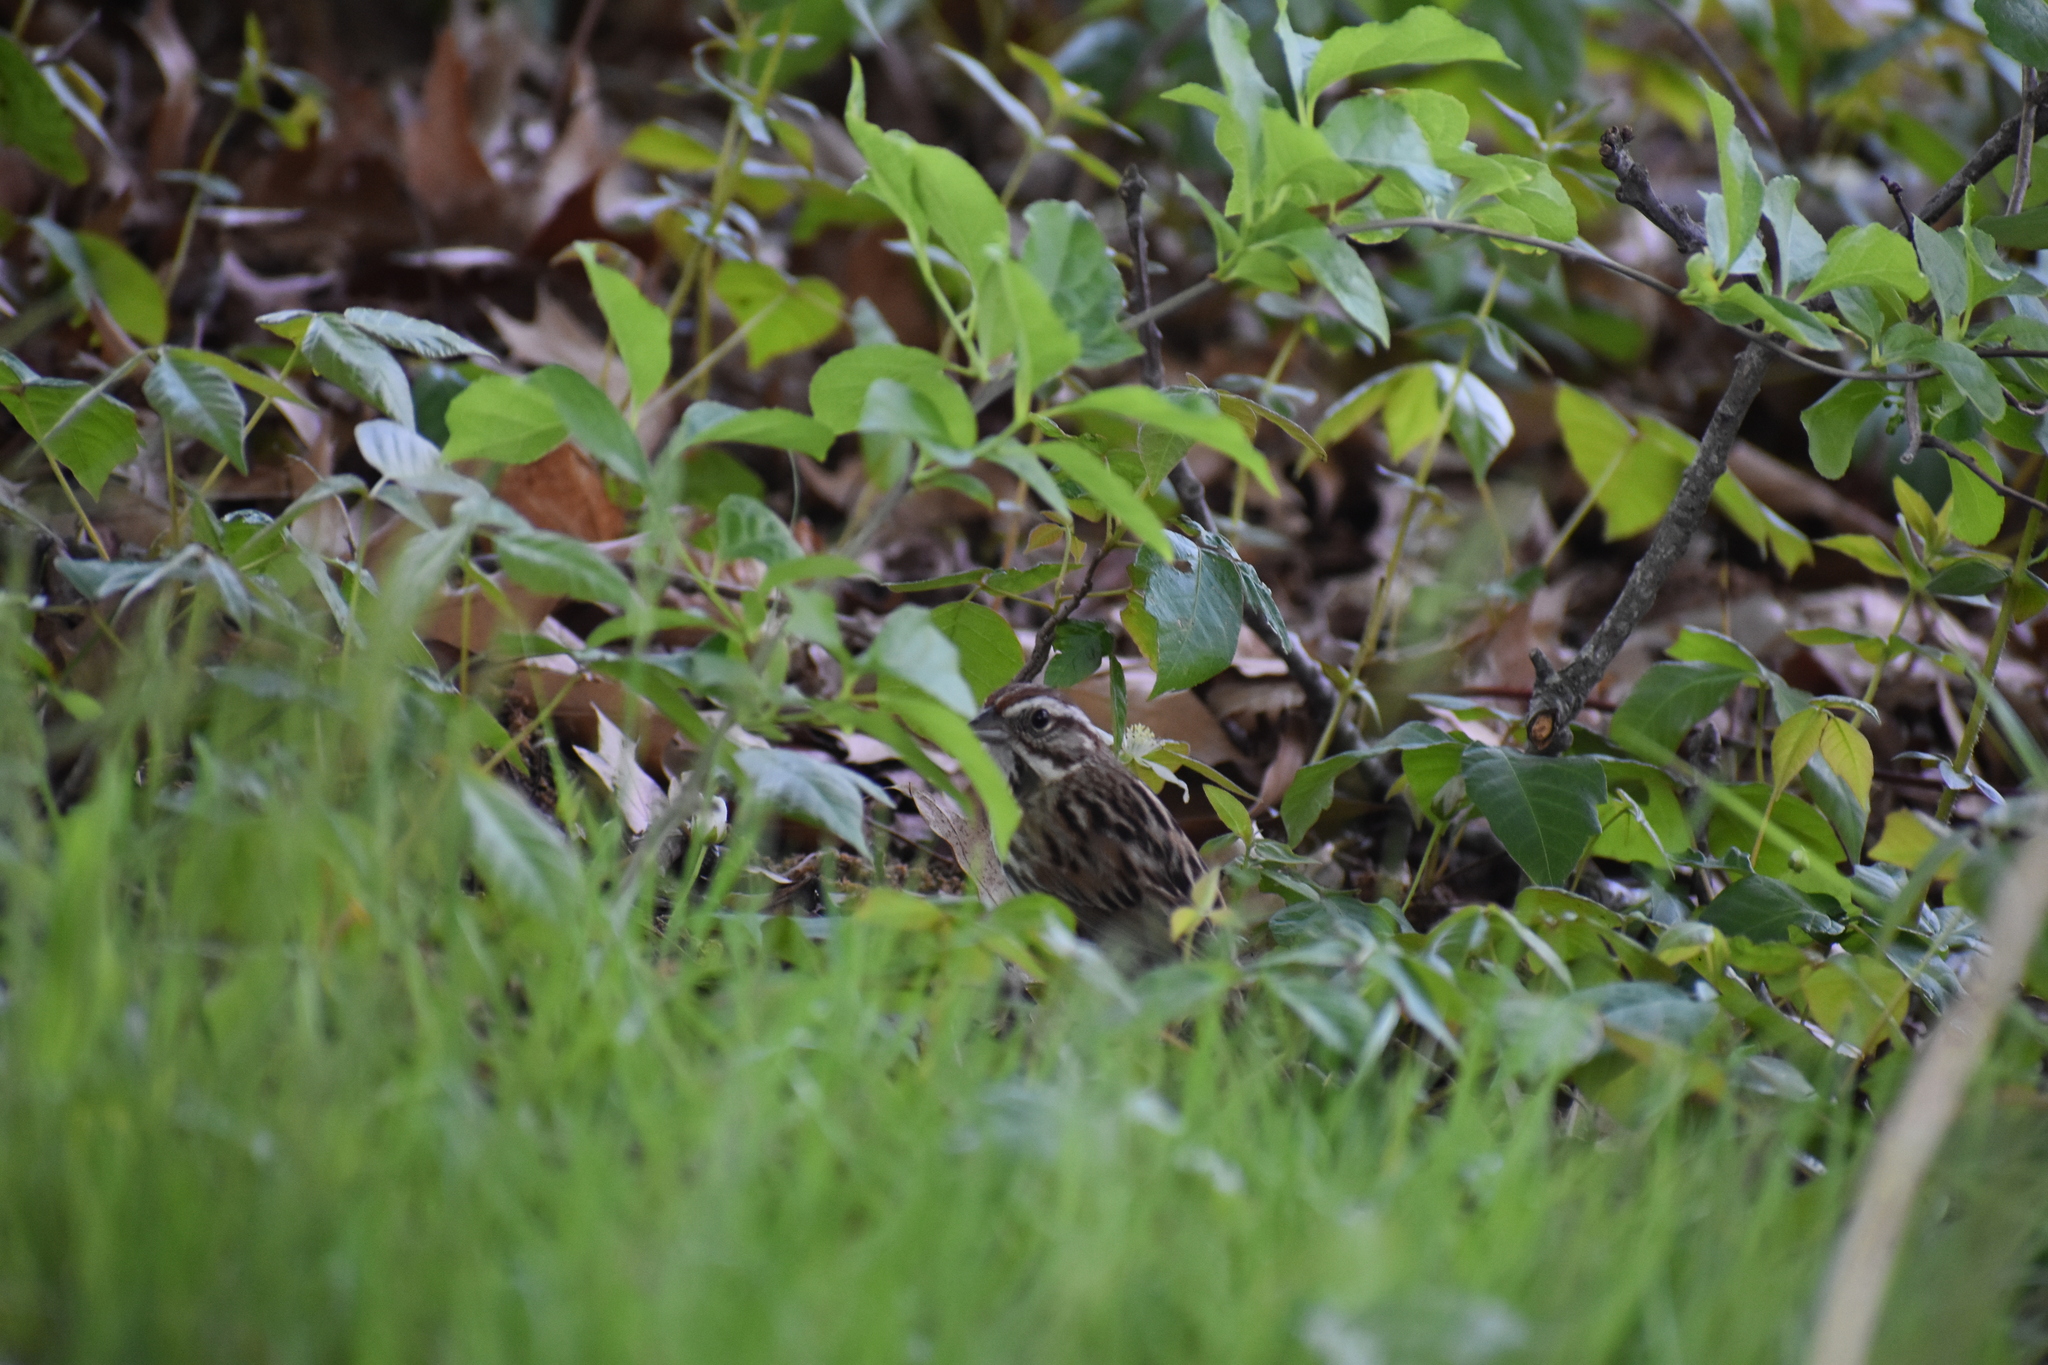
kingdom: Animalia
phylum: Chordata
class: Aves
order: Passeriformes
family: Passerellidae
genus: Melospiza
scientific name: Melospiza melodia
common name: Song sparrow
